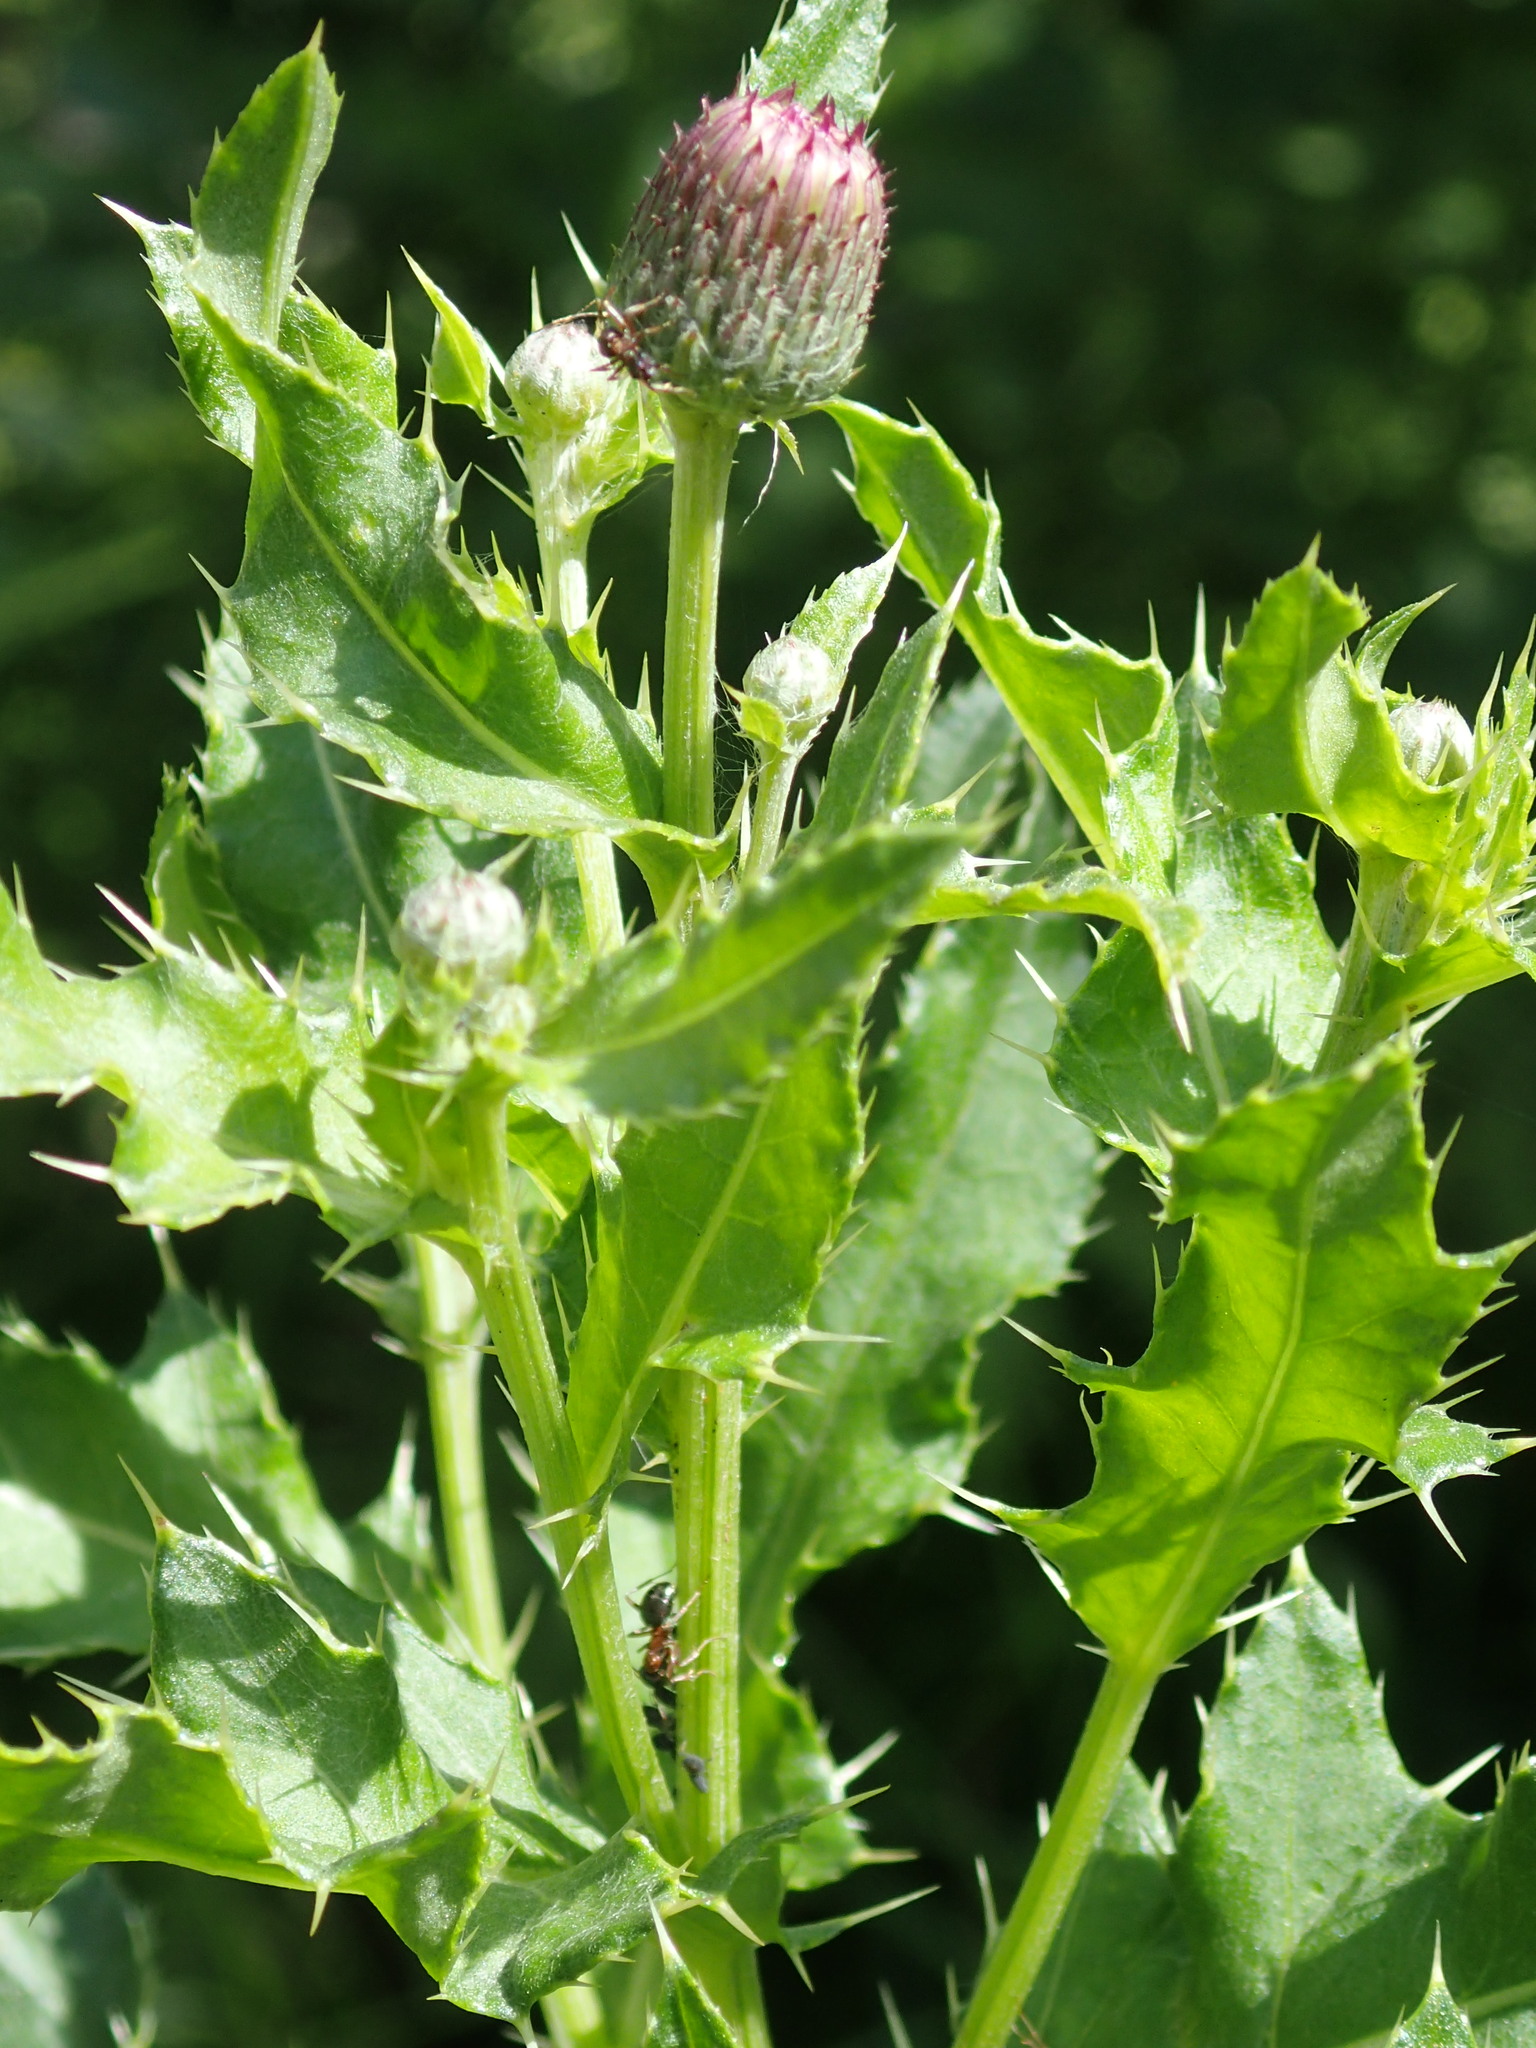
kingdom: Plantae
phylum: Tracheophyta
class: Magnoliopsida
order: Asterales
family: Asteraceae
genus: Cirsium
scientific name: Cirsium arvense
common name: Creeping thistle
